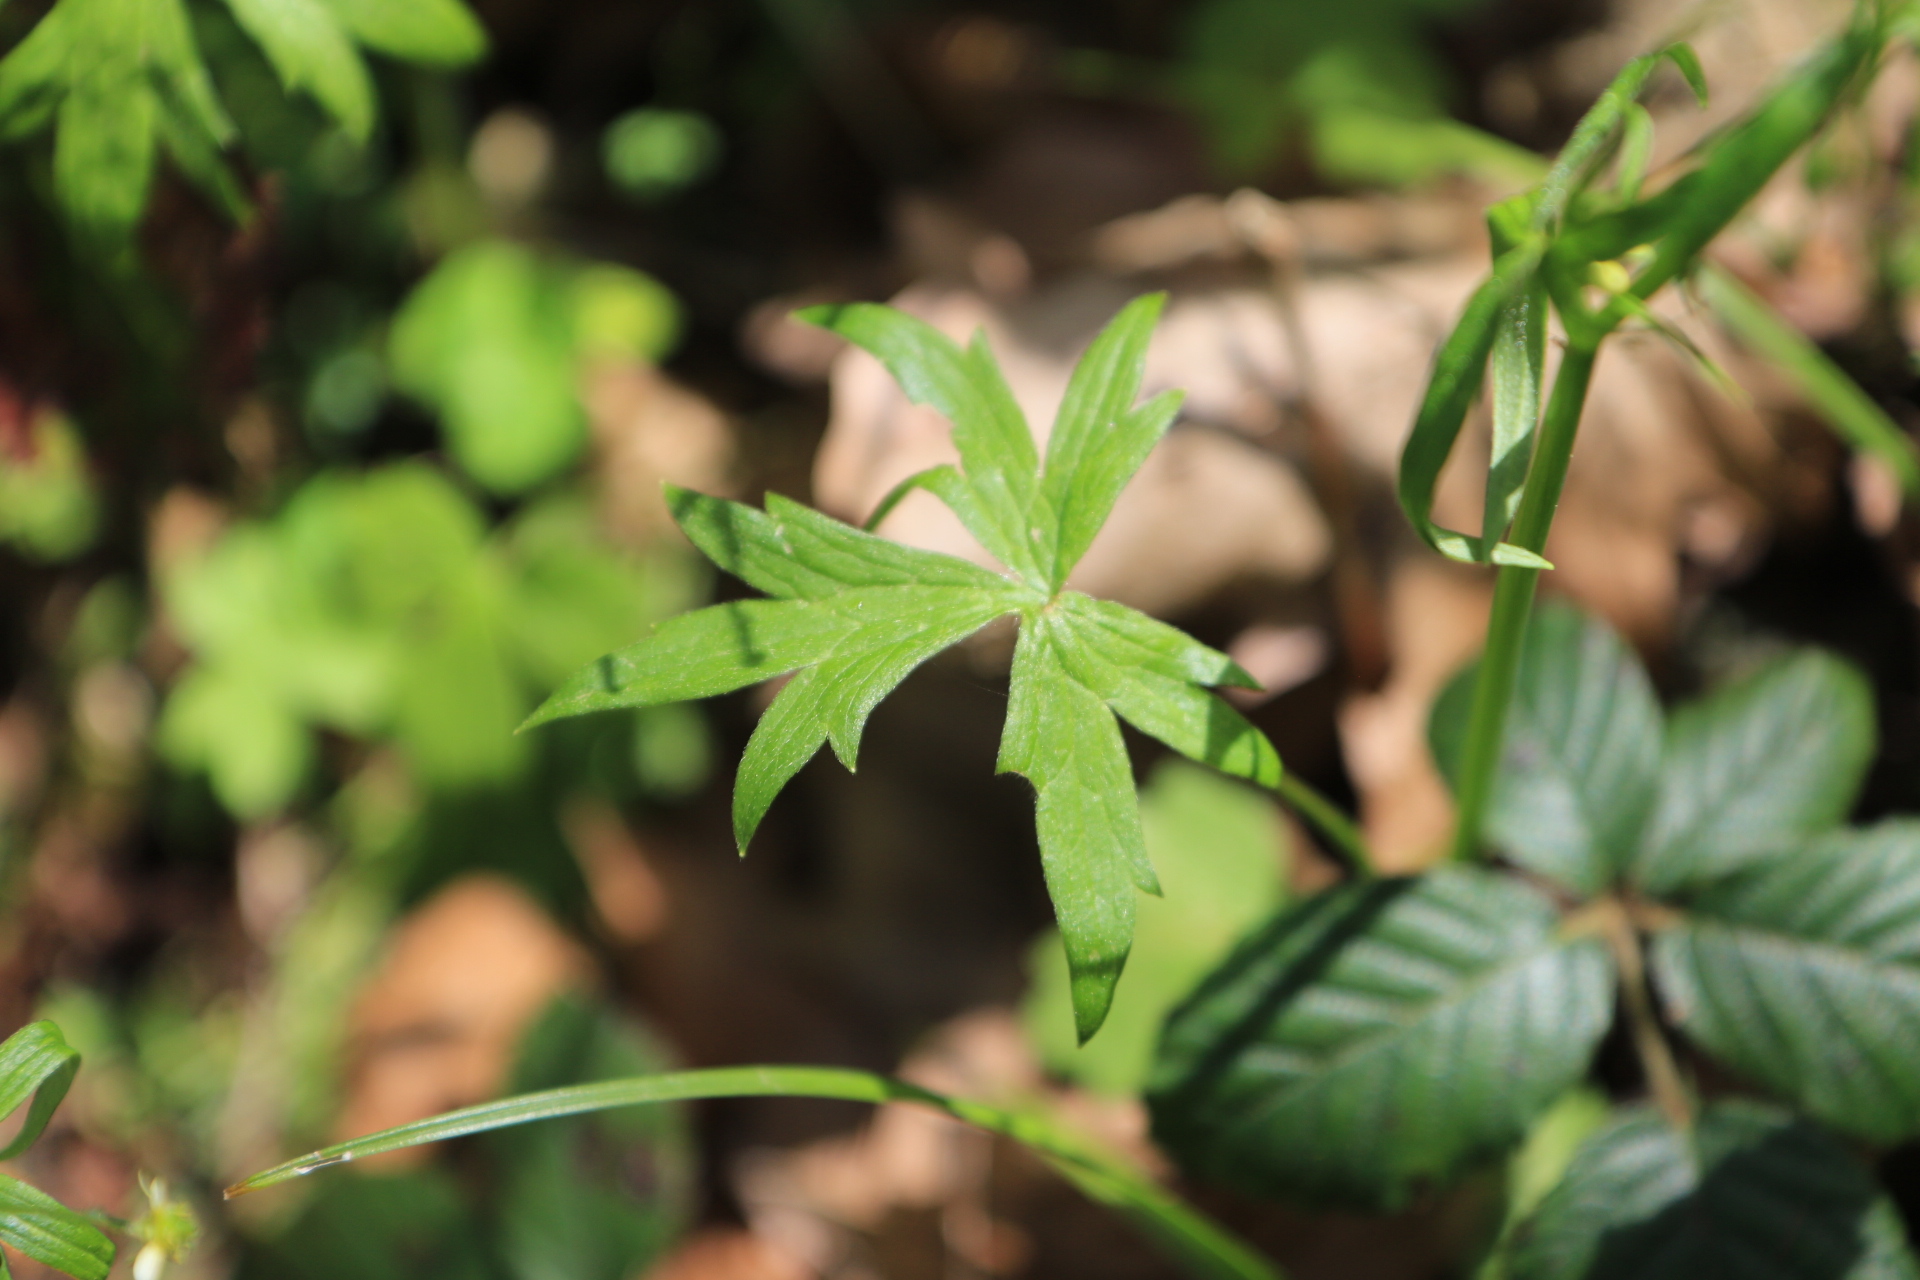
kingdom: Plantae
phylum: Tracheophyta
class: Magnoliopsida
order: Ranunculales
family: Ranunculaceae
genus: Ranunculus
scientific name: Ranunculus uncinatus
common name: Little buttercup
